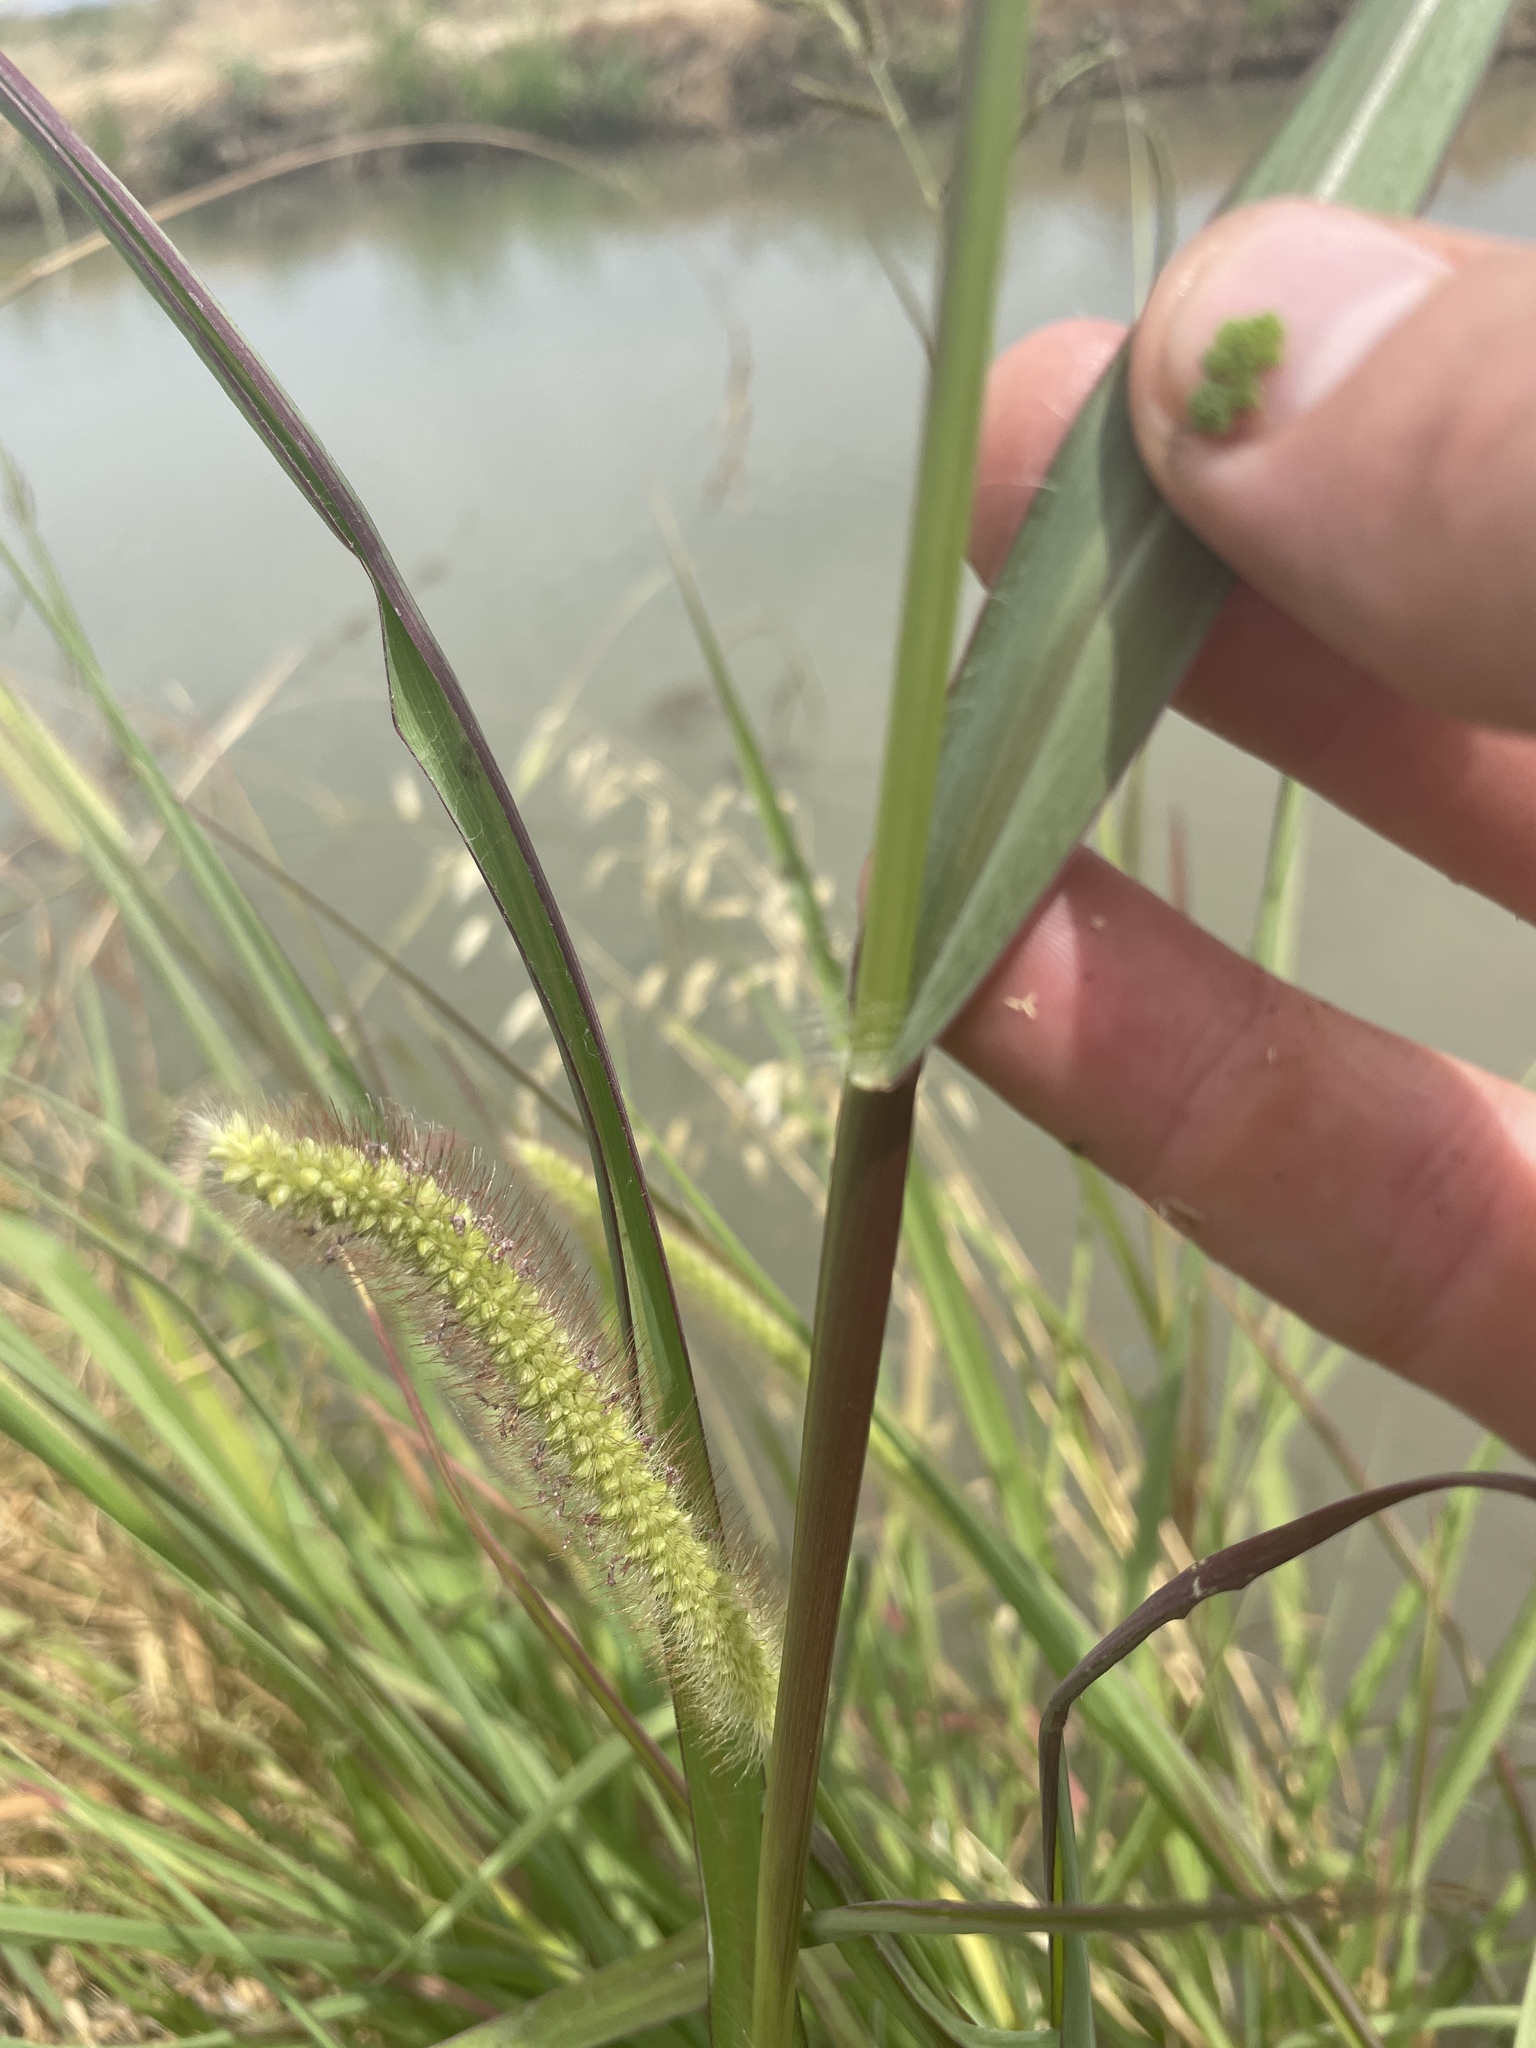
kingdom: Plantae
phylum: Tracheophyta
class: Liliopsida
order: Poales
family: Poaceae
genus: Setaria
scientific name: Setaria pumila
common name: Yellow bristle-grass
